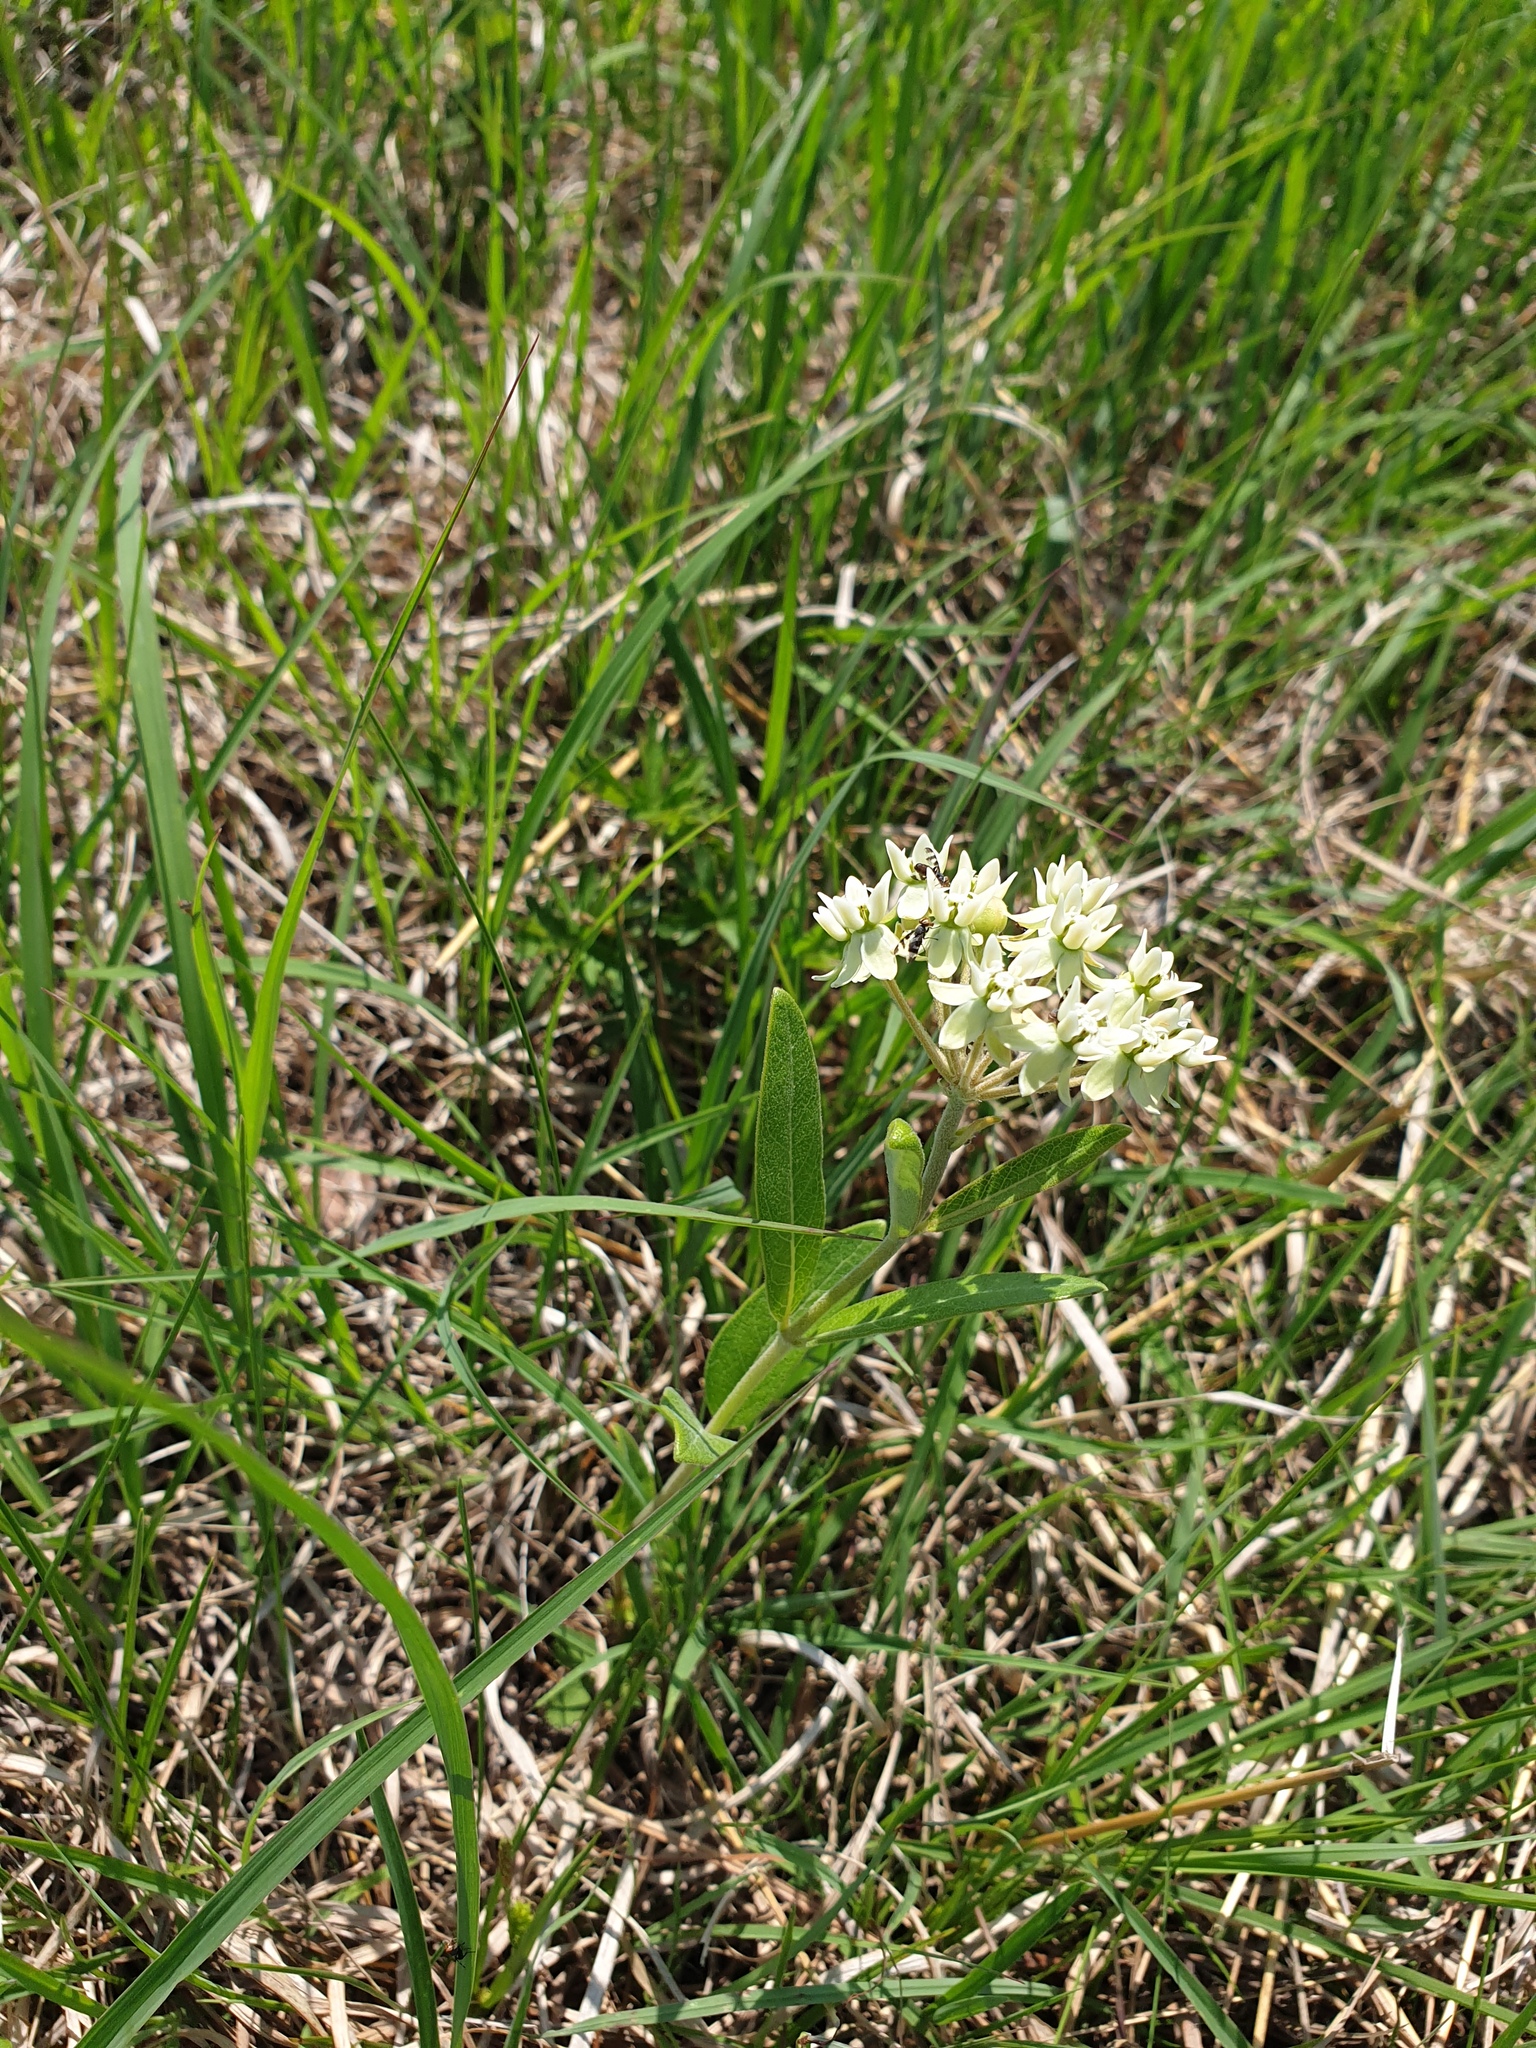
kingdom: Plantae
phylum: Tracheophyta
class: Magnoliopsida
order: Gentianales
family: Apocynaceae
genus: Asclepias
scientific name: Asclepias ovalifolia
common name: Dwarf milkweed
